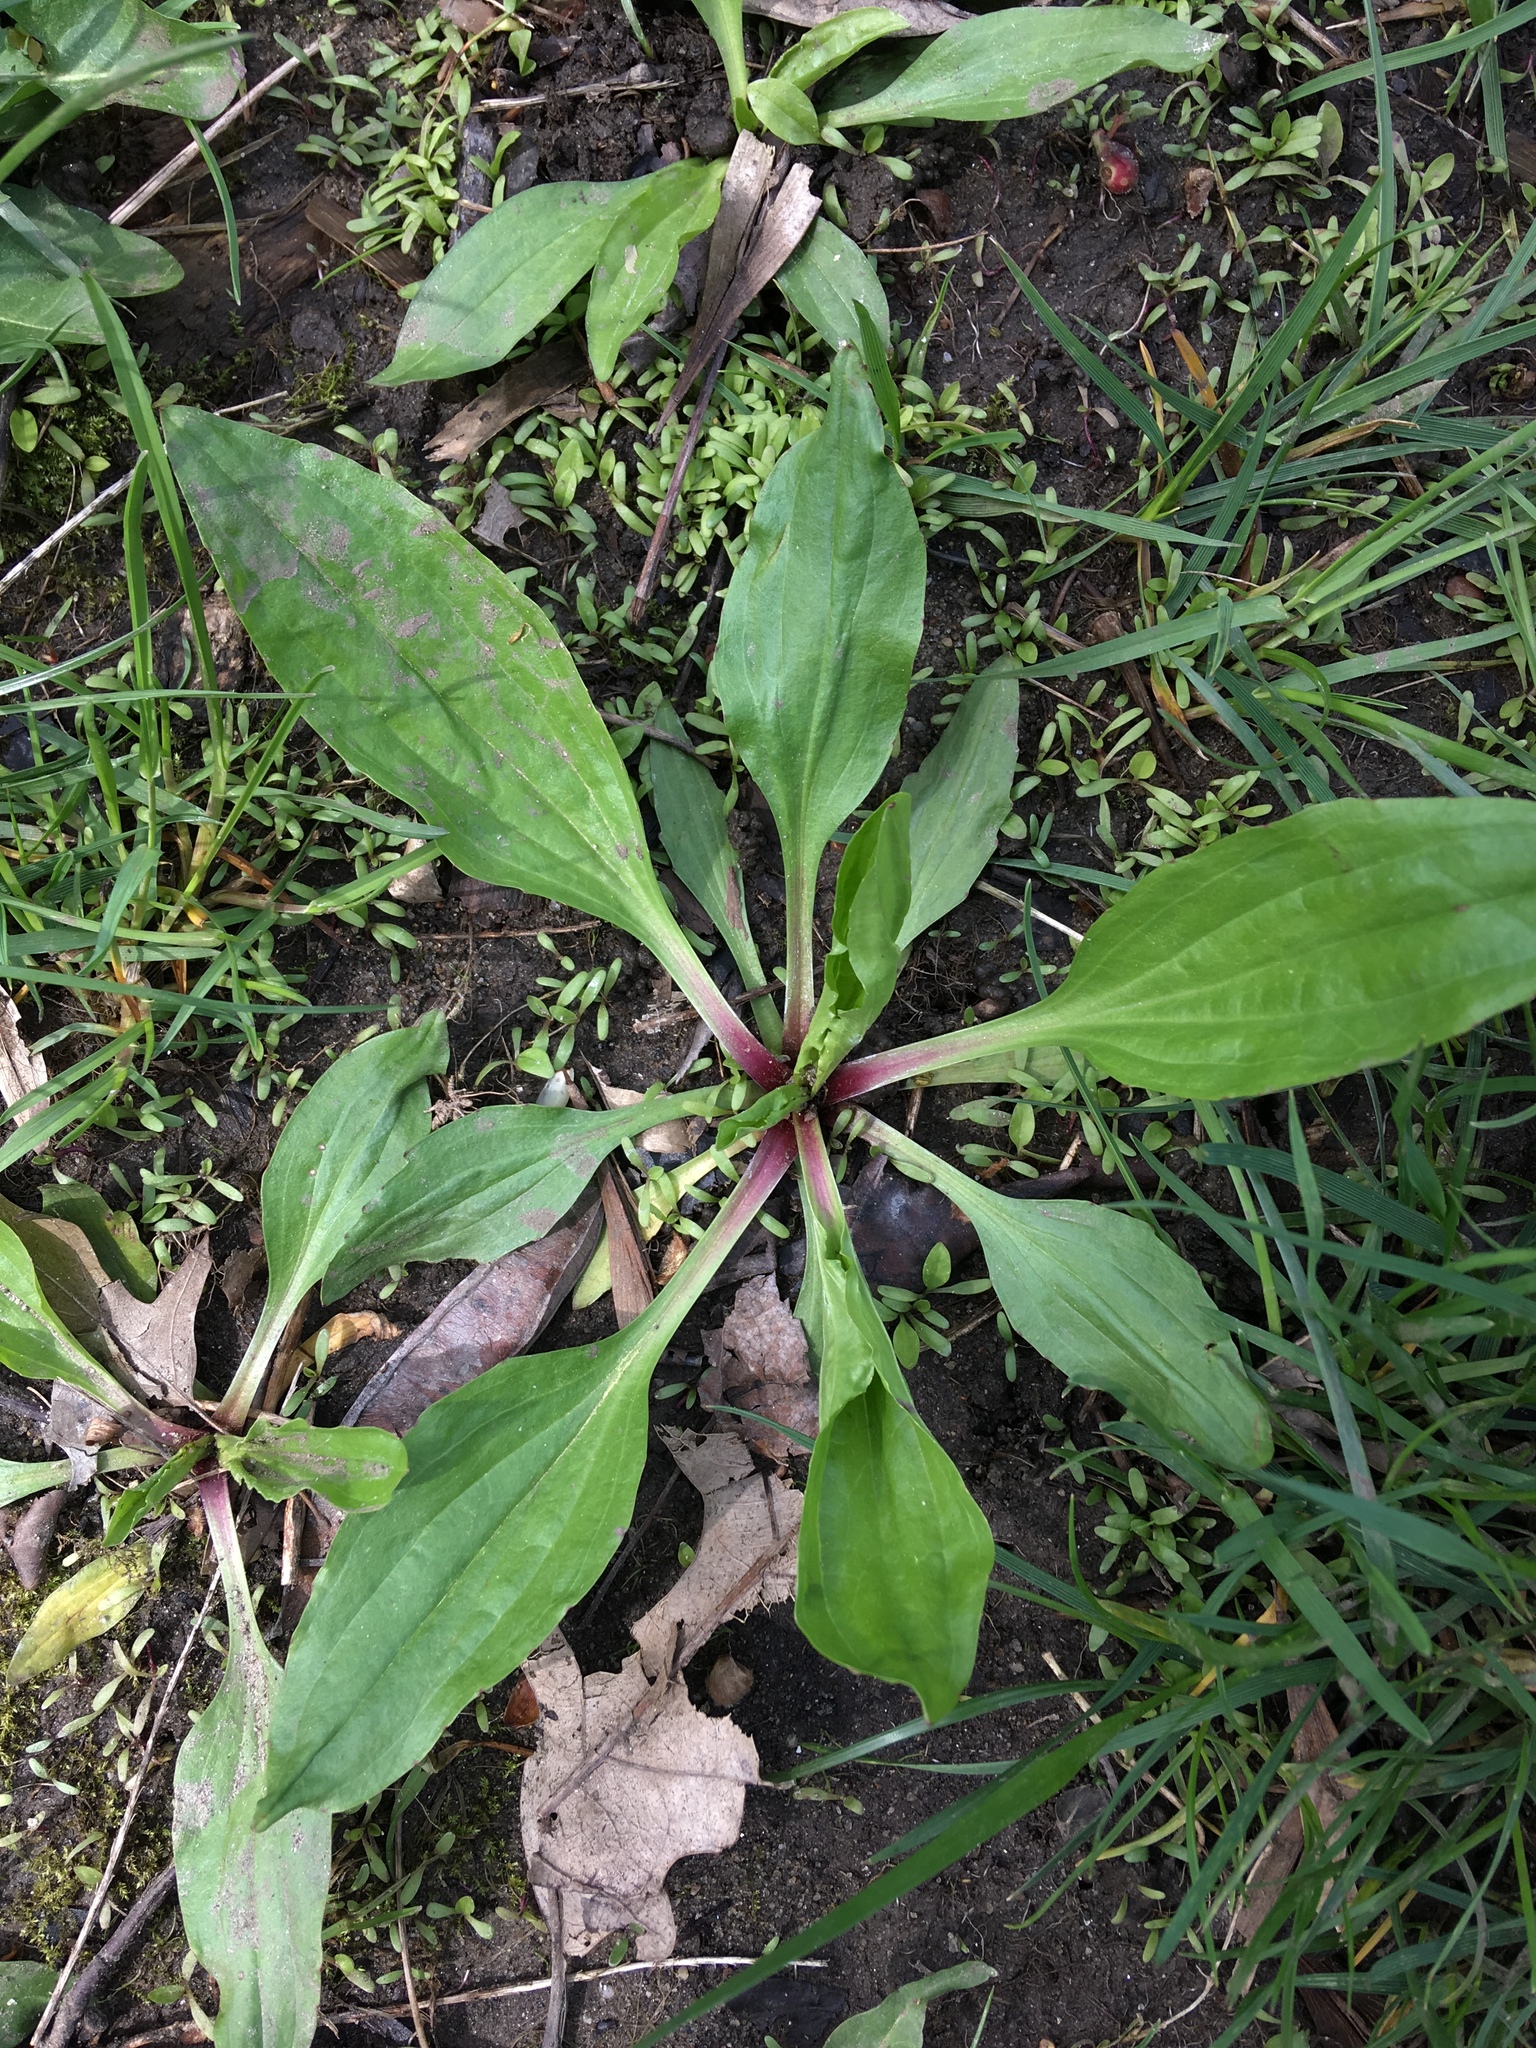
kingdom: Plantae
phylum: Tracheophyta
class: Magnoliopsida
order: Lamiales
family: Plantaginaceae
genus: Plantago
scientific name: Plantago rugelii
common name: American plantain
